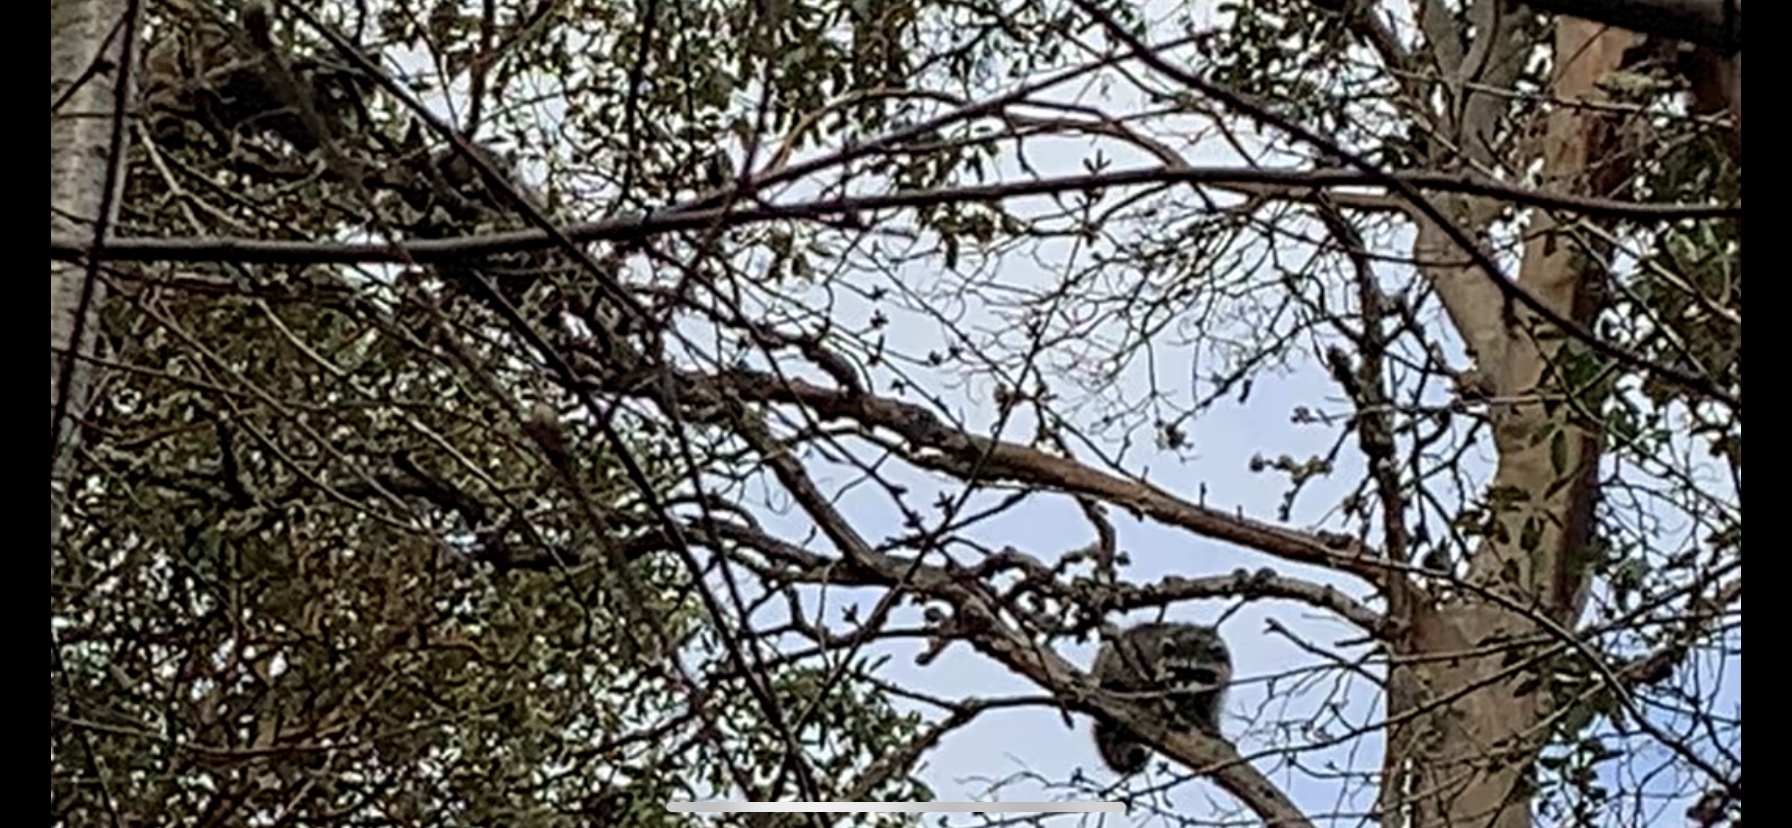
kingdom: Animalia
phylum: Chordata
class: Mammalia
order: Carnivora
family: Procyonidae
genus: Procyon
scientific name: Procyon lotor
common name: Raccoon
